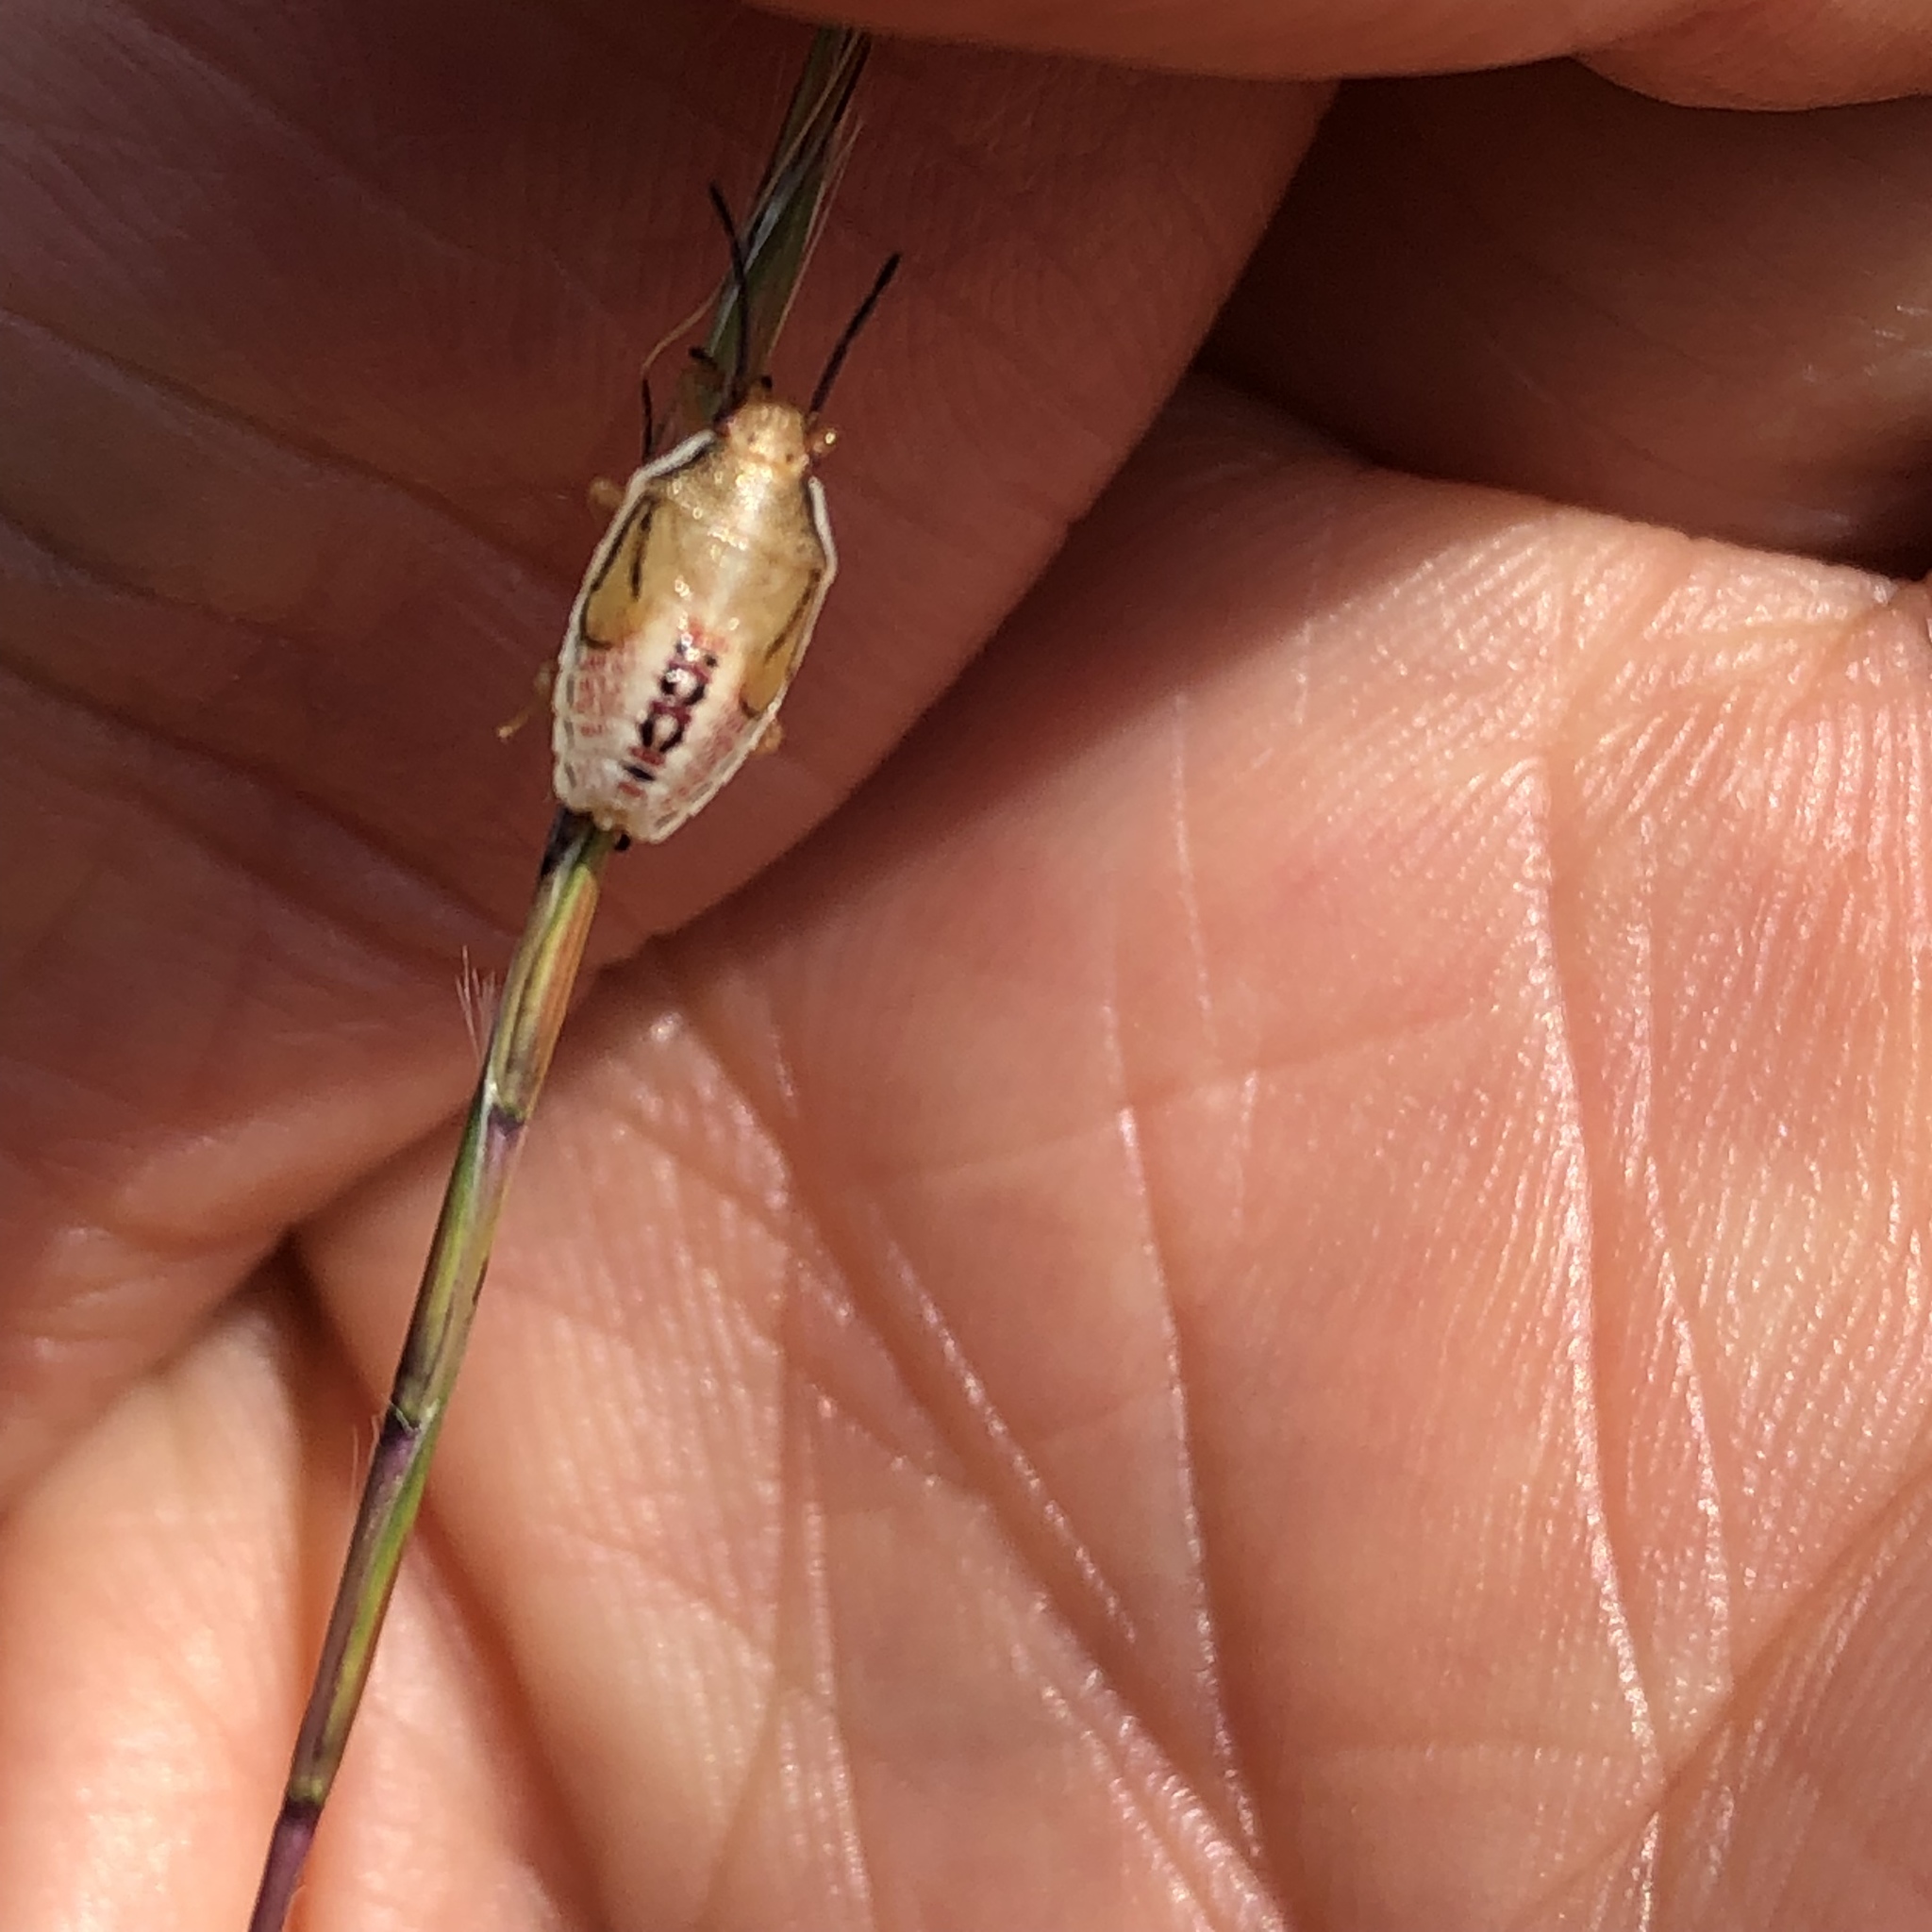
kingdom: Animalia
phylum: Arthropoda
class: Insecta
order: Hemiptera
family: Pentatomidae
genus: Oebalus
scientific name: Oebalus pugnax
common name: Rice stink bug
